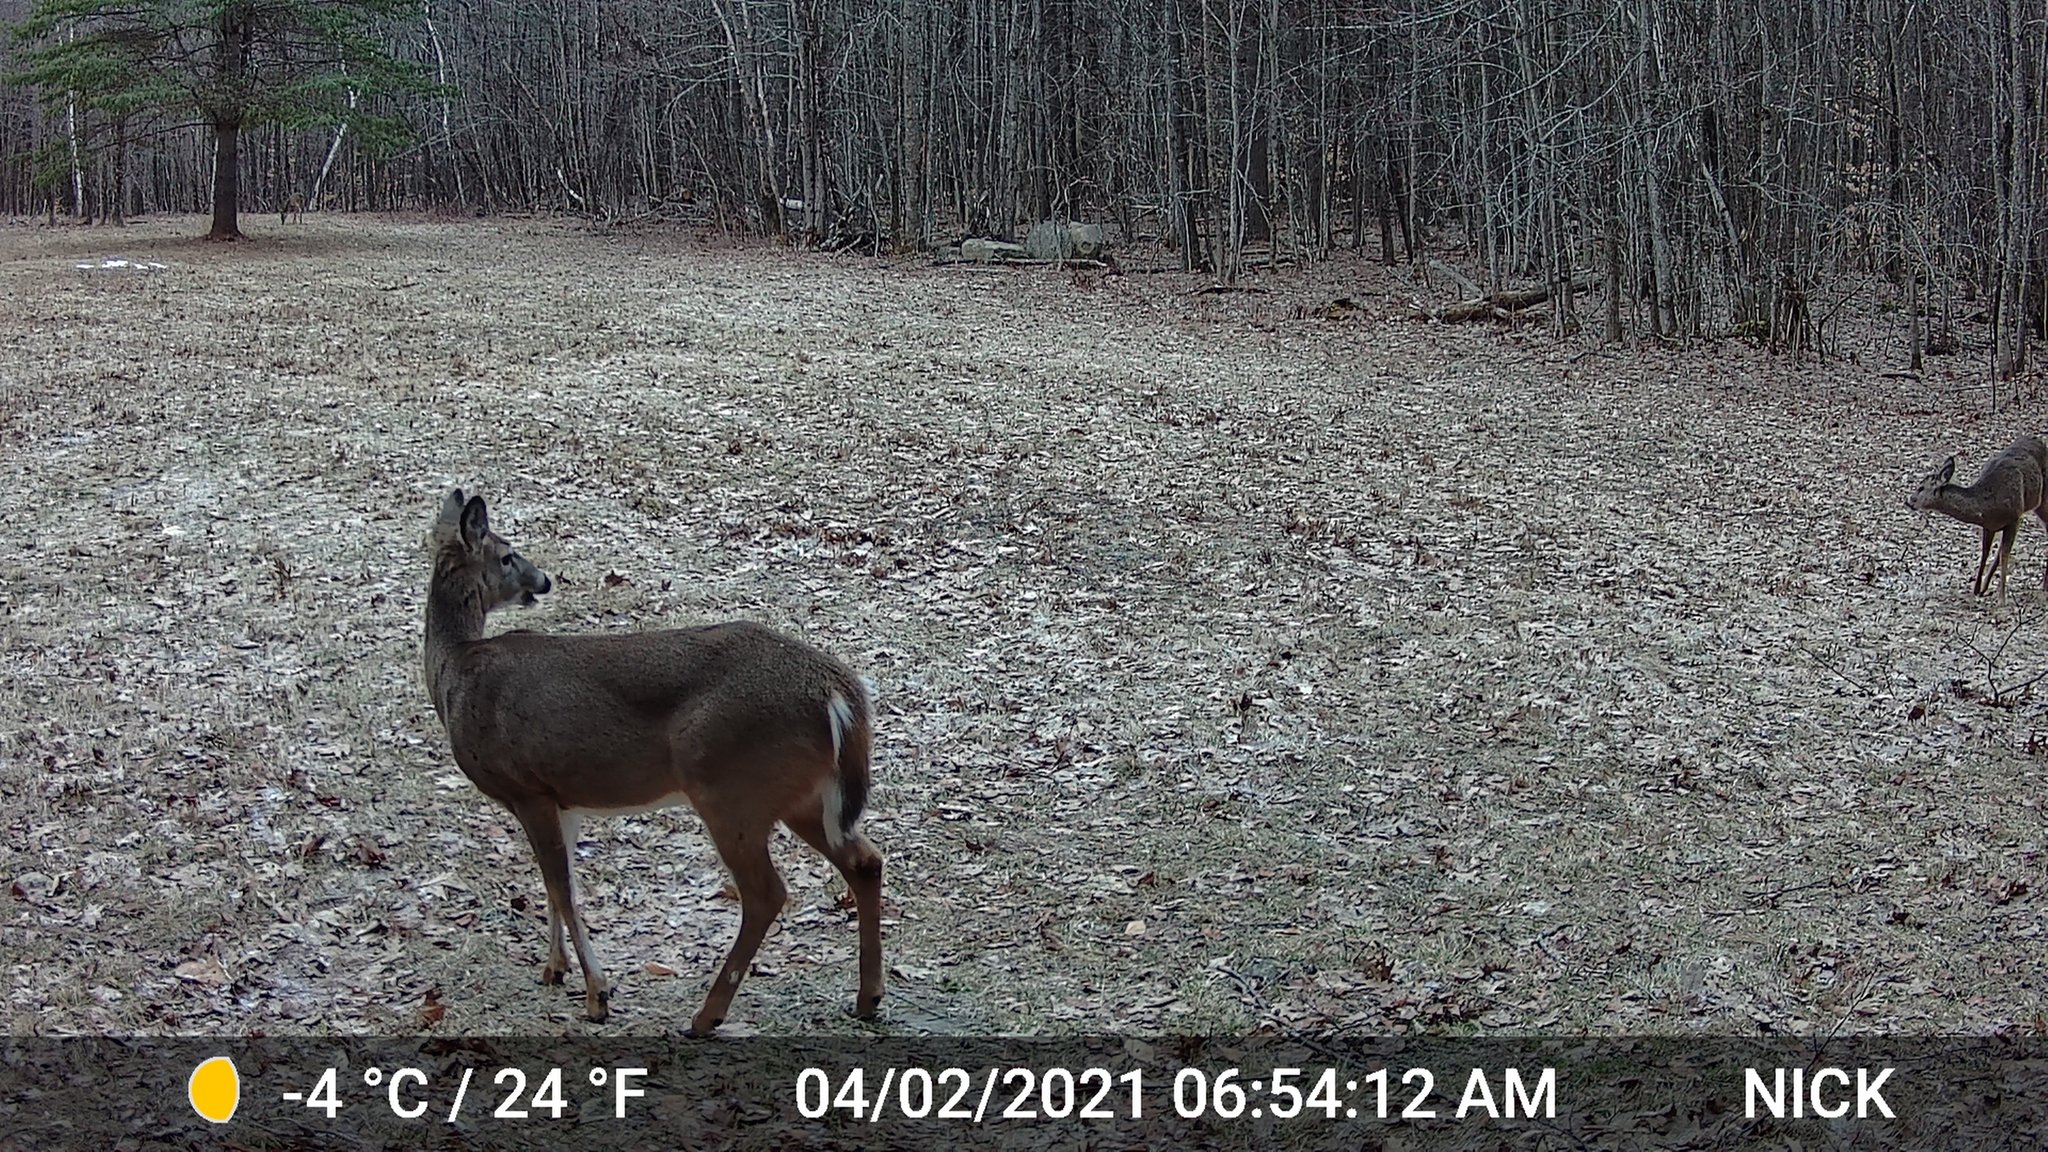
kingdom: Animalia
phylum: Chordata
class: Mammalia
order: Artiodactyla
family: Cervidae
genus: Odocoileus
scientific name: Odocoileus virginianus
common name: White-tailed deer
